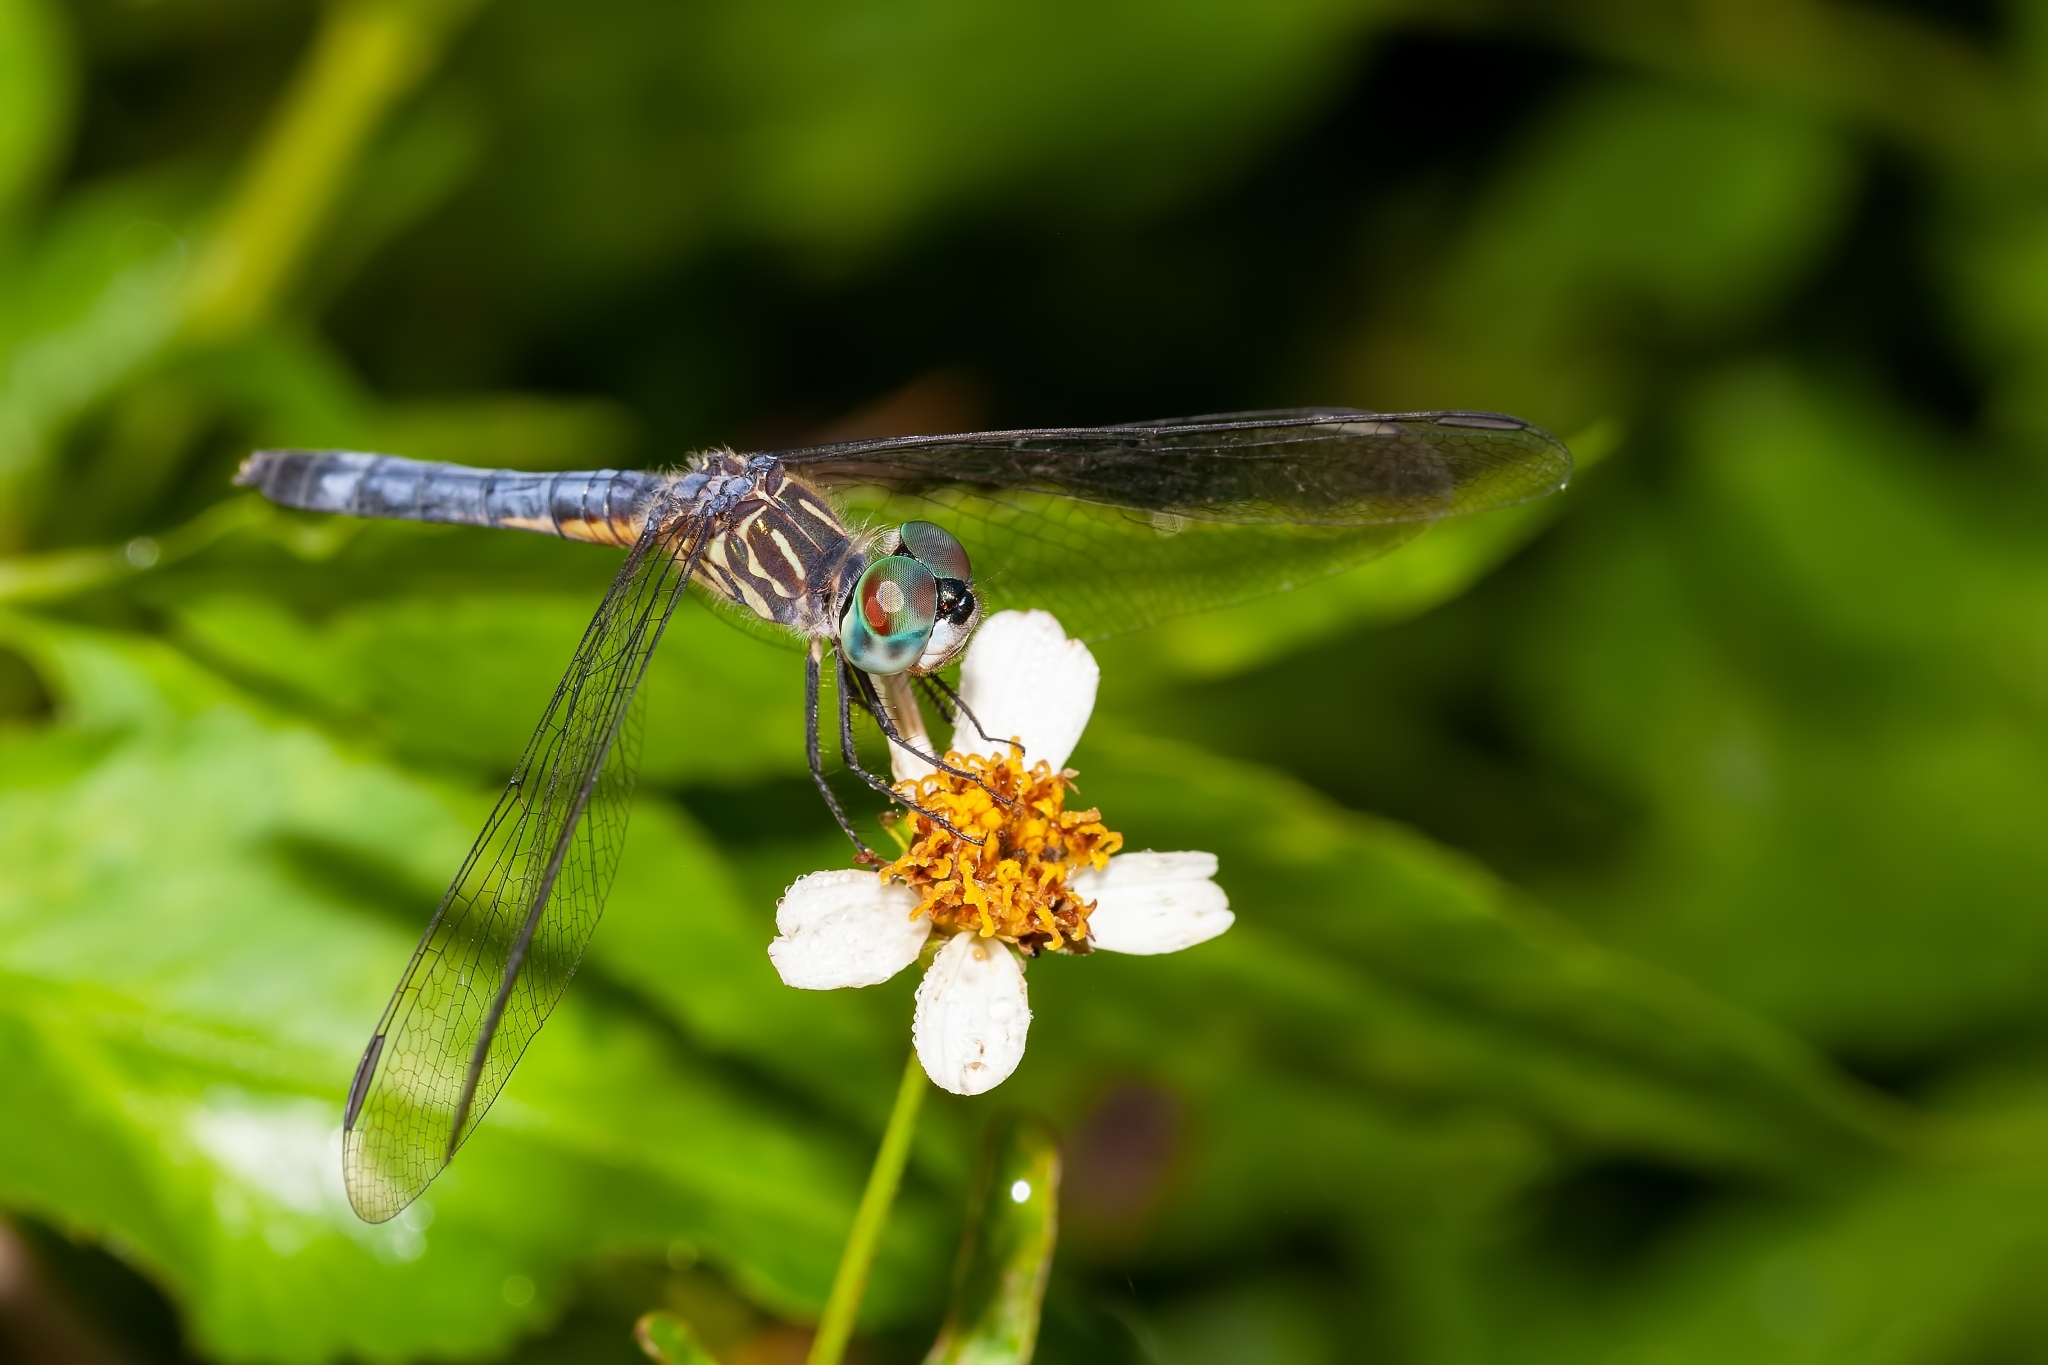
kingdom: Animalia
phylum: Arthropoda
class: Insecta
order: Odonata
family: Libellulidae
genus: Pachydiplax
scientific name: Pachydiplax longipennis
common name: Blue dasher
